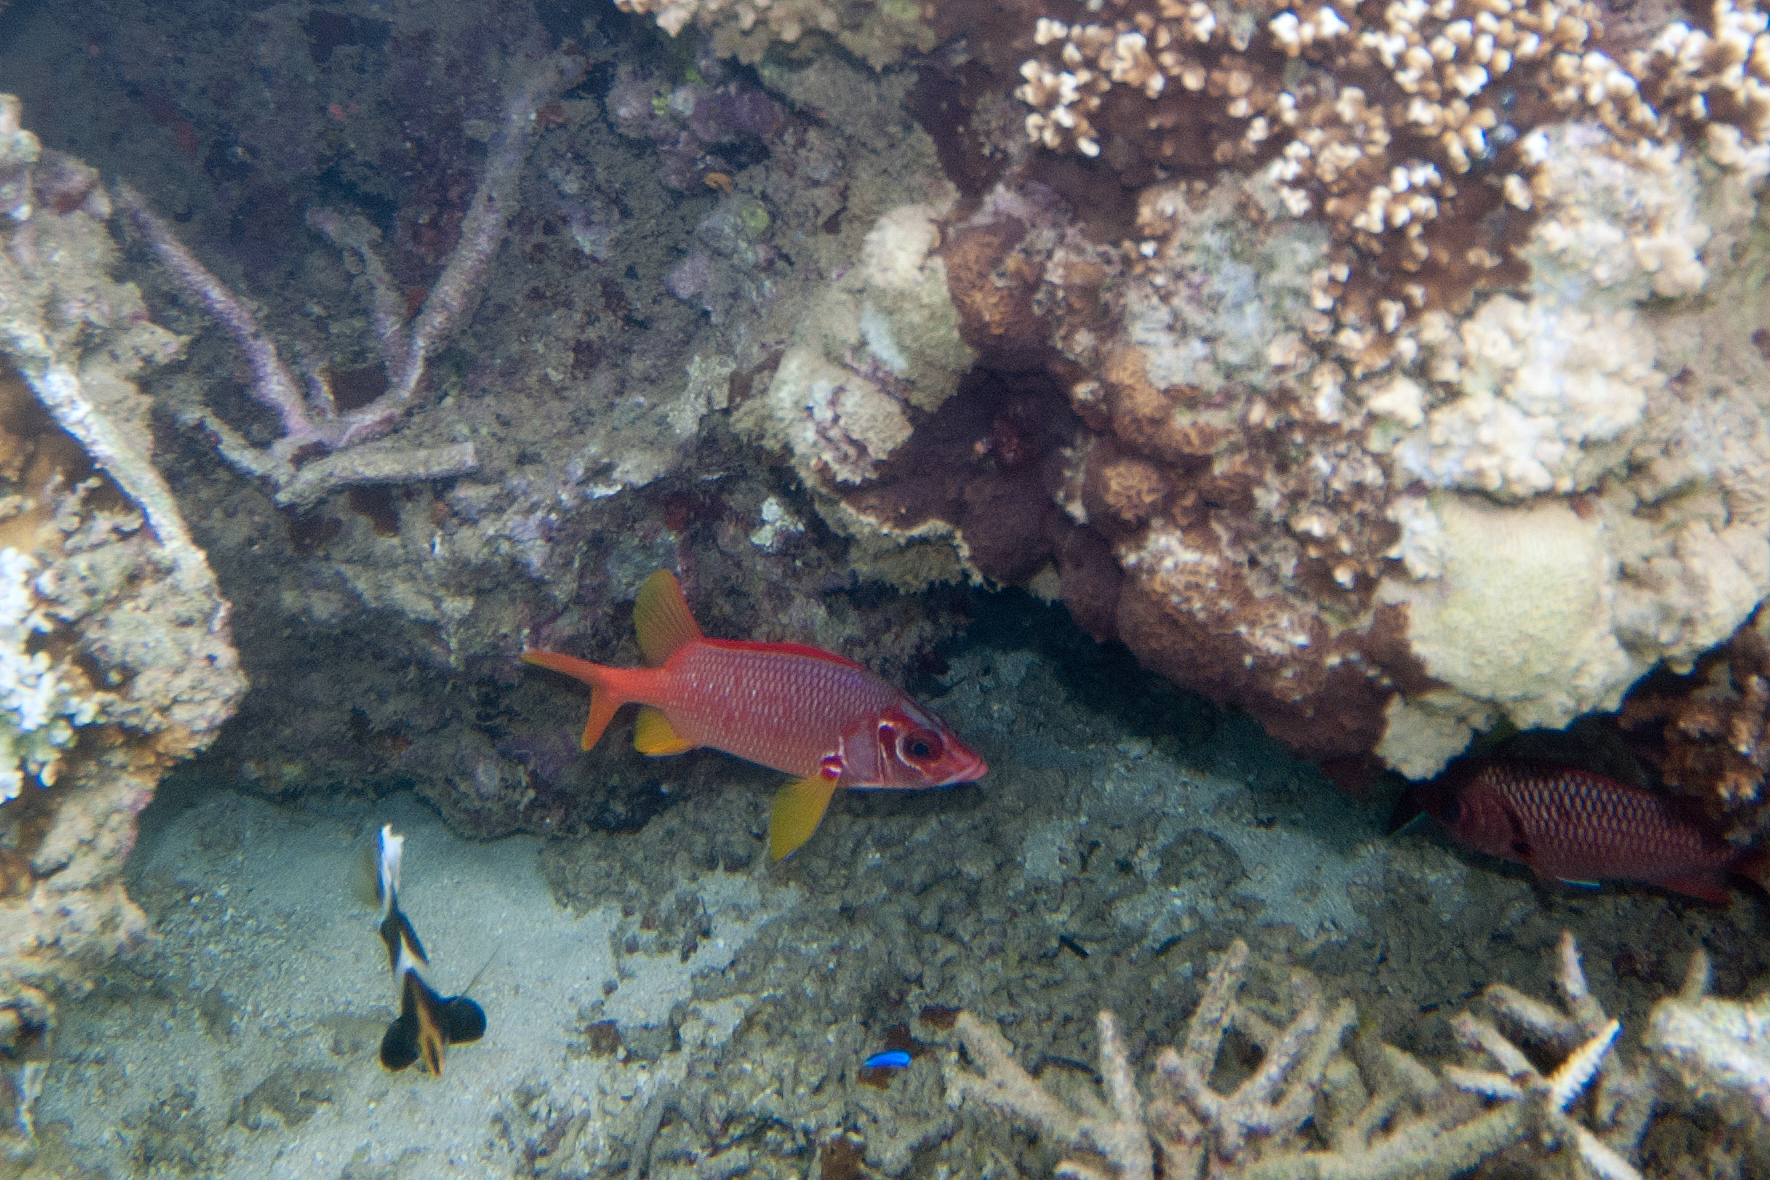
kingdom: Animalia
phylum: Chordata
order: Beryciformes
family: Holocentridae
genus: Sargocentron
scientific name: Sargocentron spiniferum
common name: Giant squirrelfish
